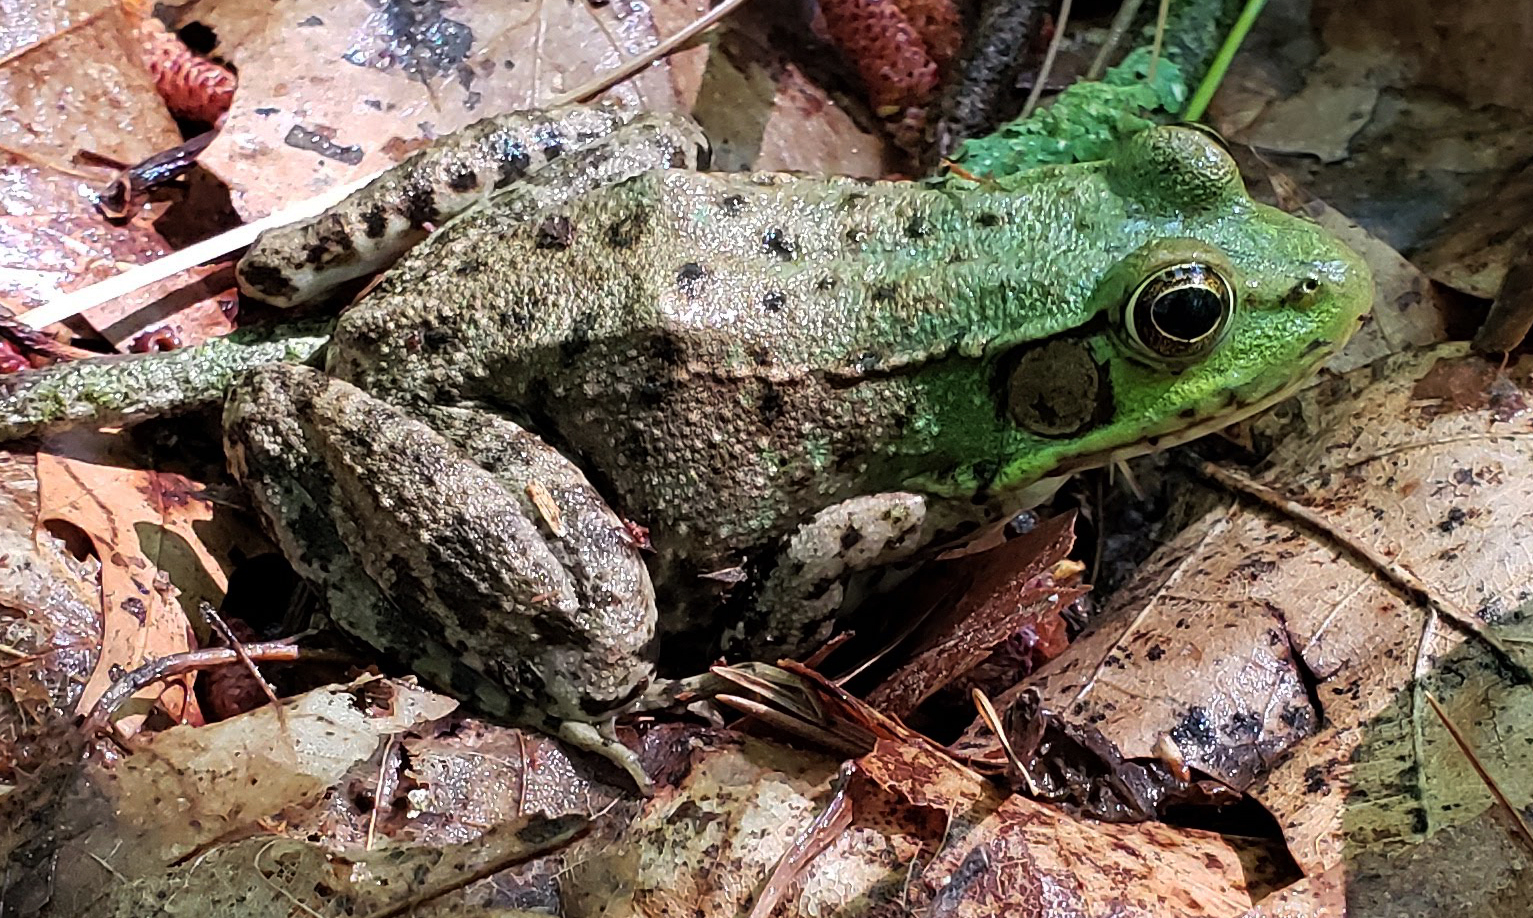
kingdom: Animalia
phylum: Chordata
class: Amphibia
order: Anura
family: Ranidae
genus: Lithobates
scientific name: Lithobates clamitans
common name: Green frog
